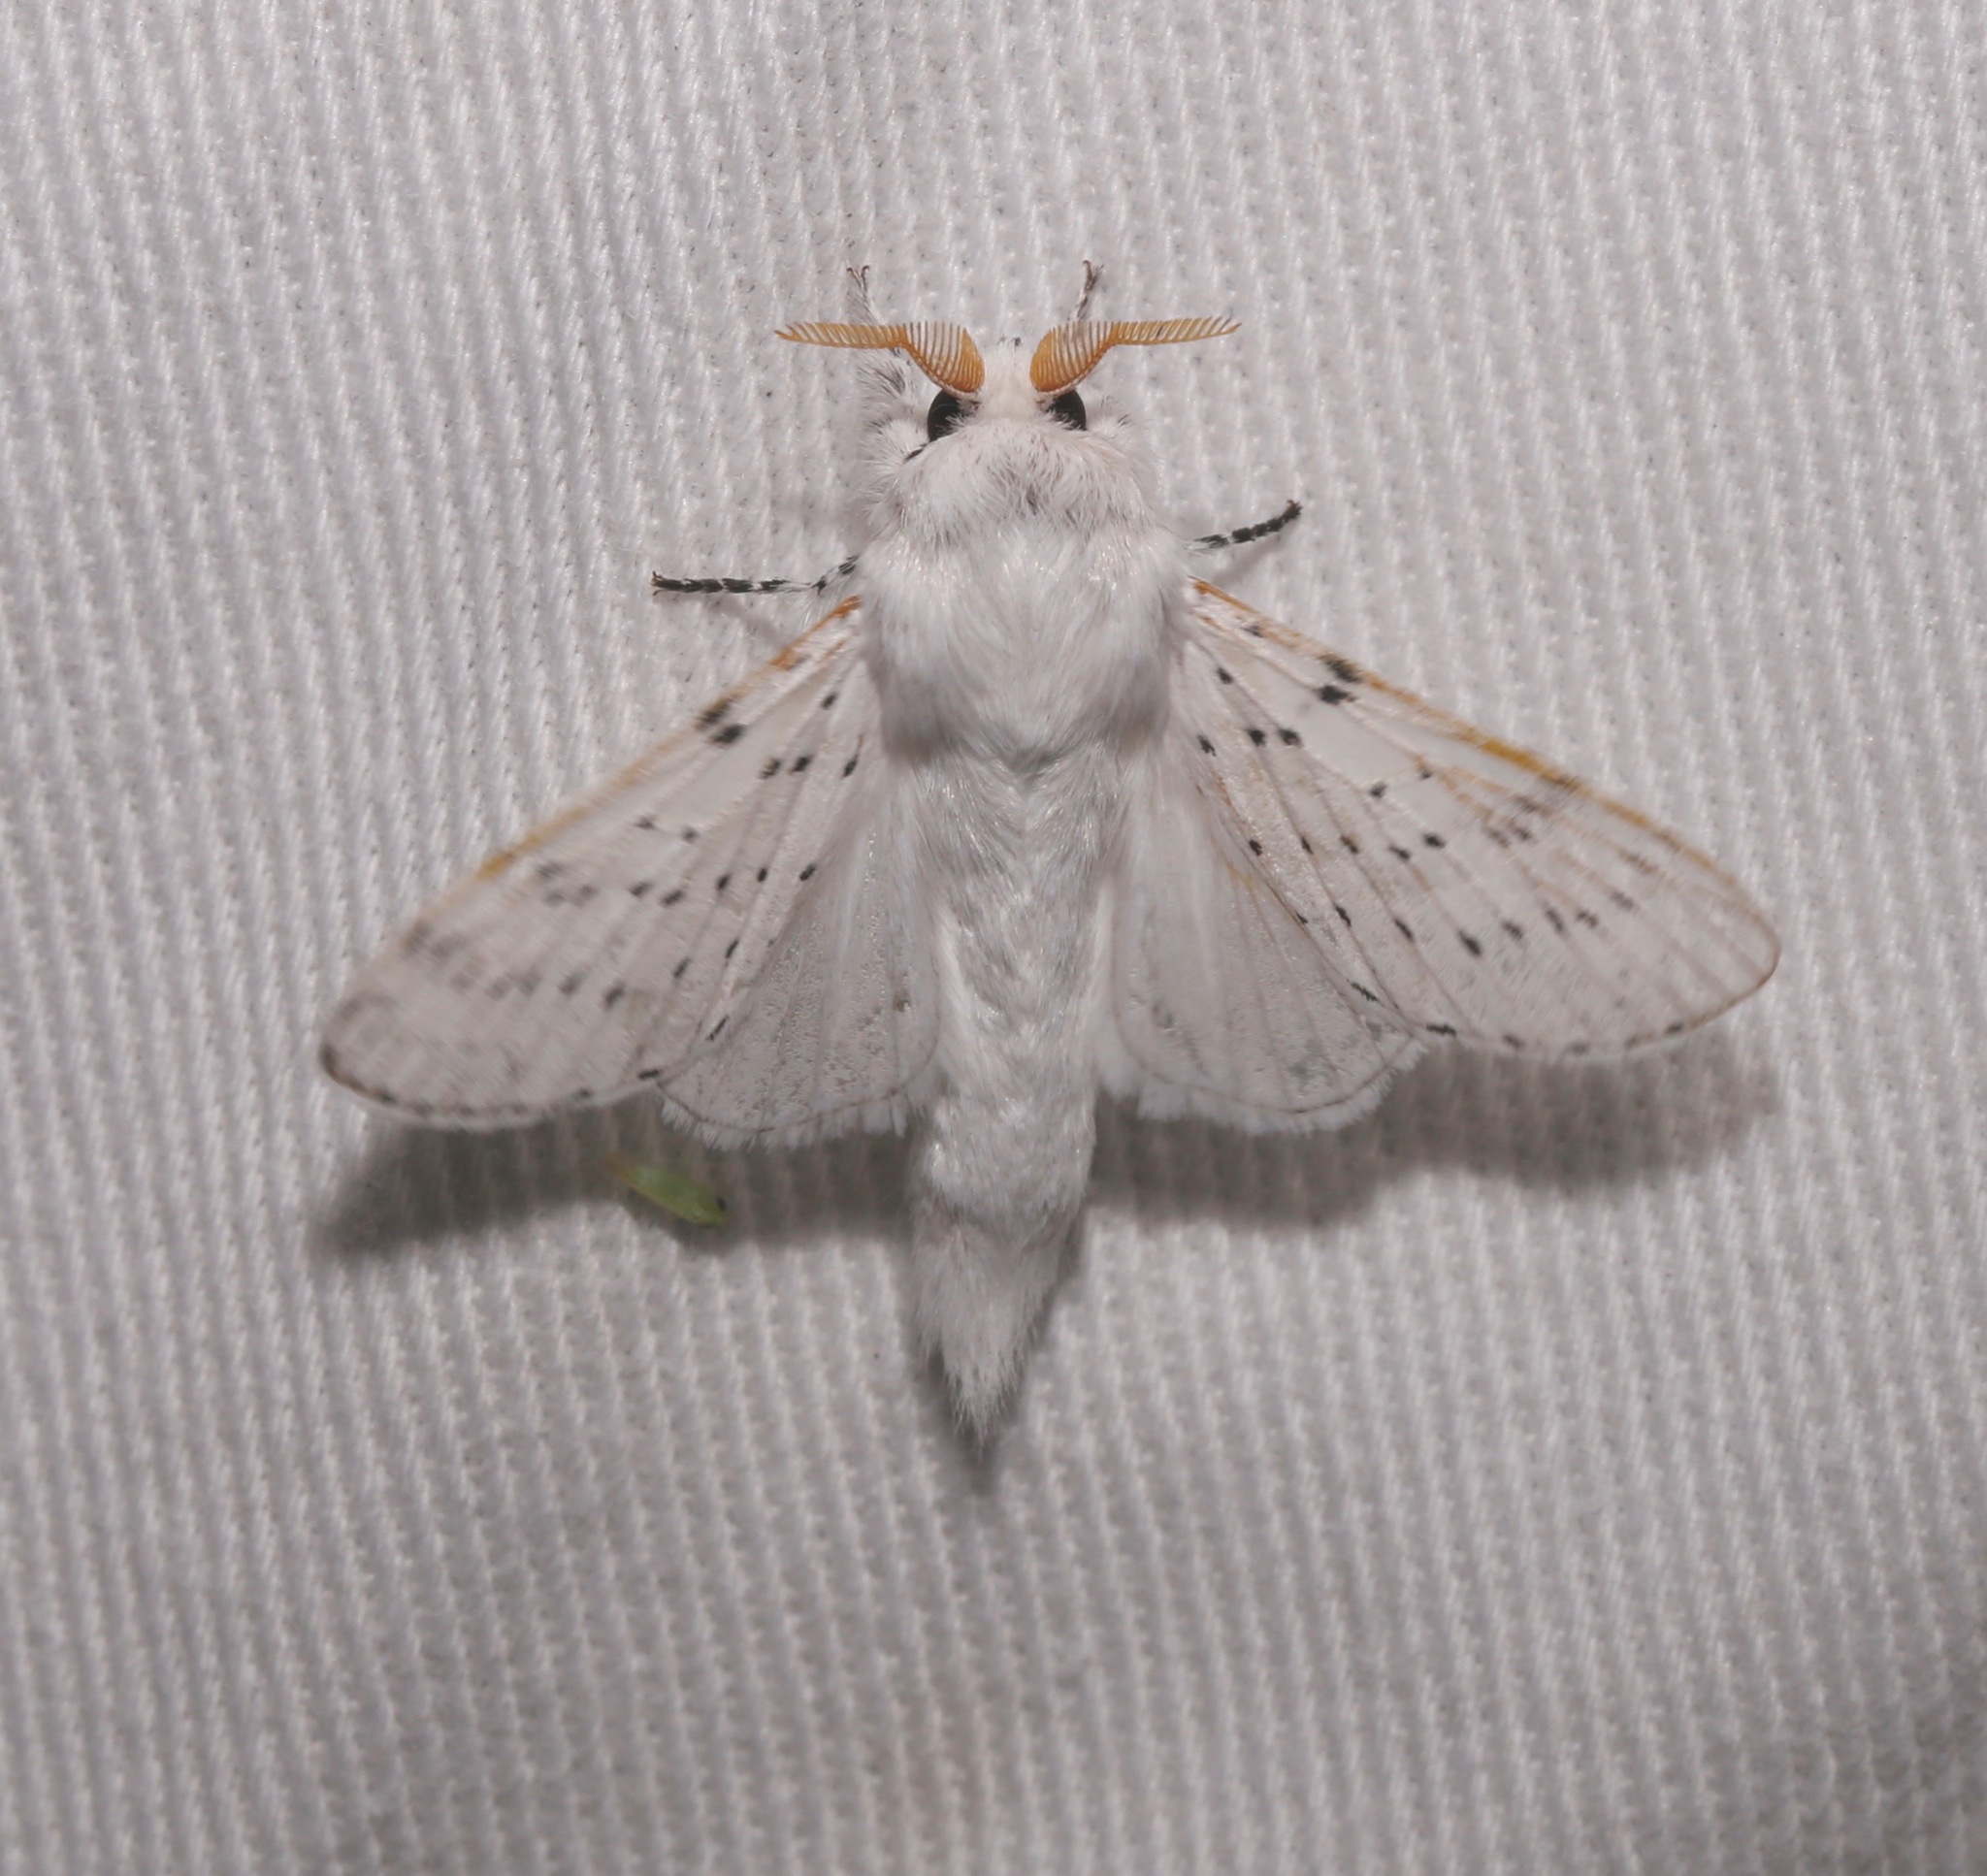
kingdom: Animalia
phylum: Arthropoda
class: Insecta
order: Lepidoptera
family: Lasiocampidae
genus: Artace
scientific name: Artace cribrarius
